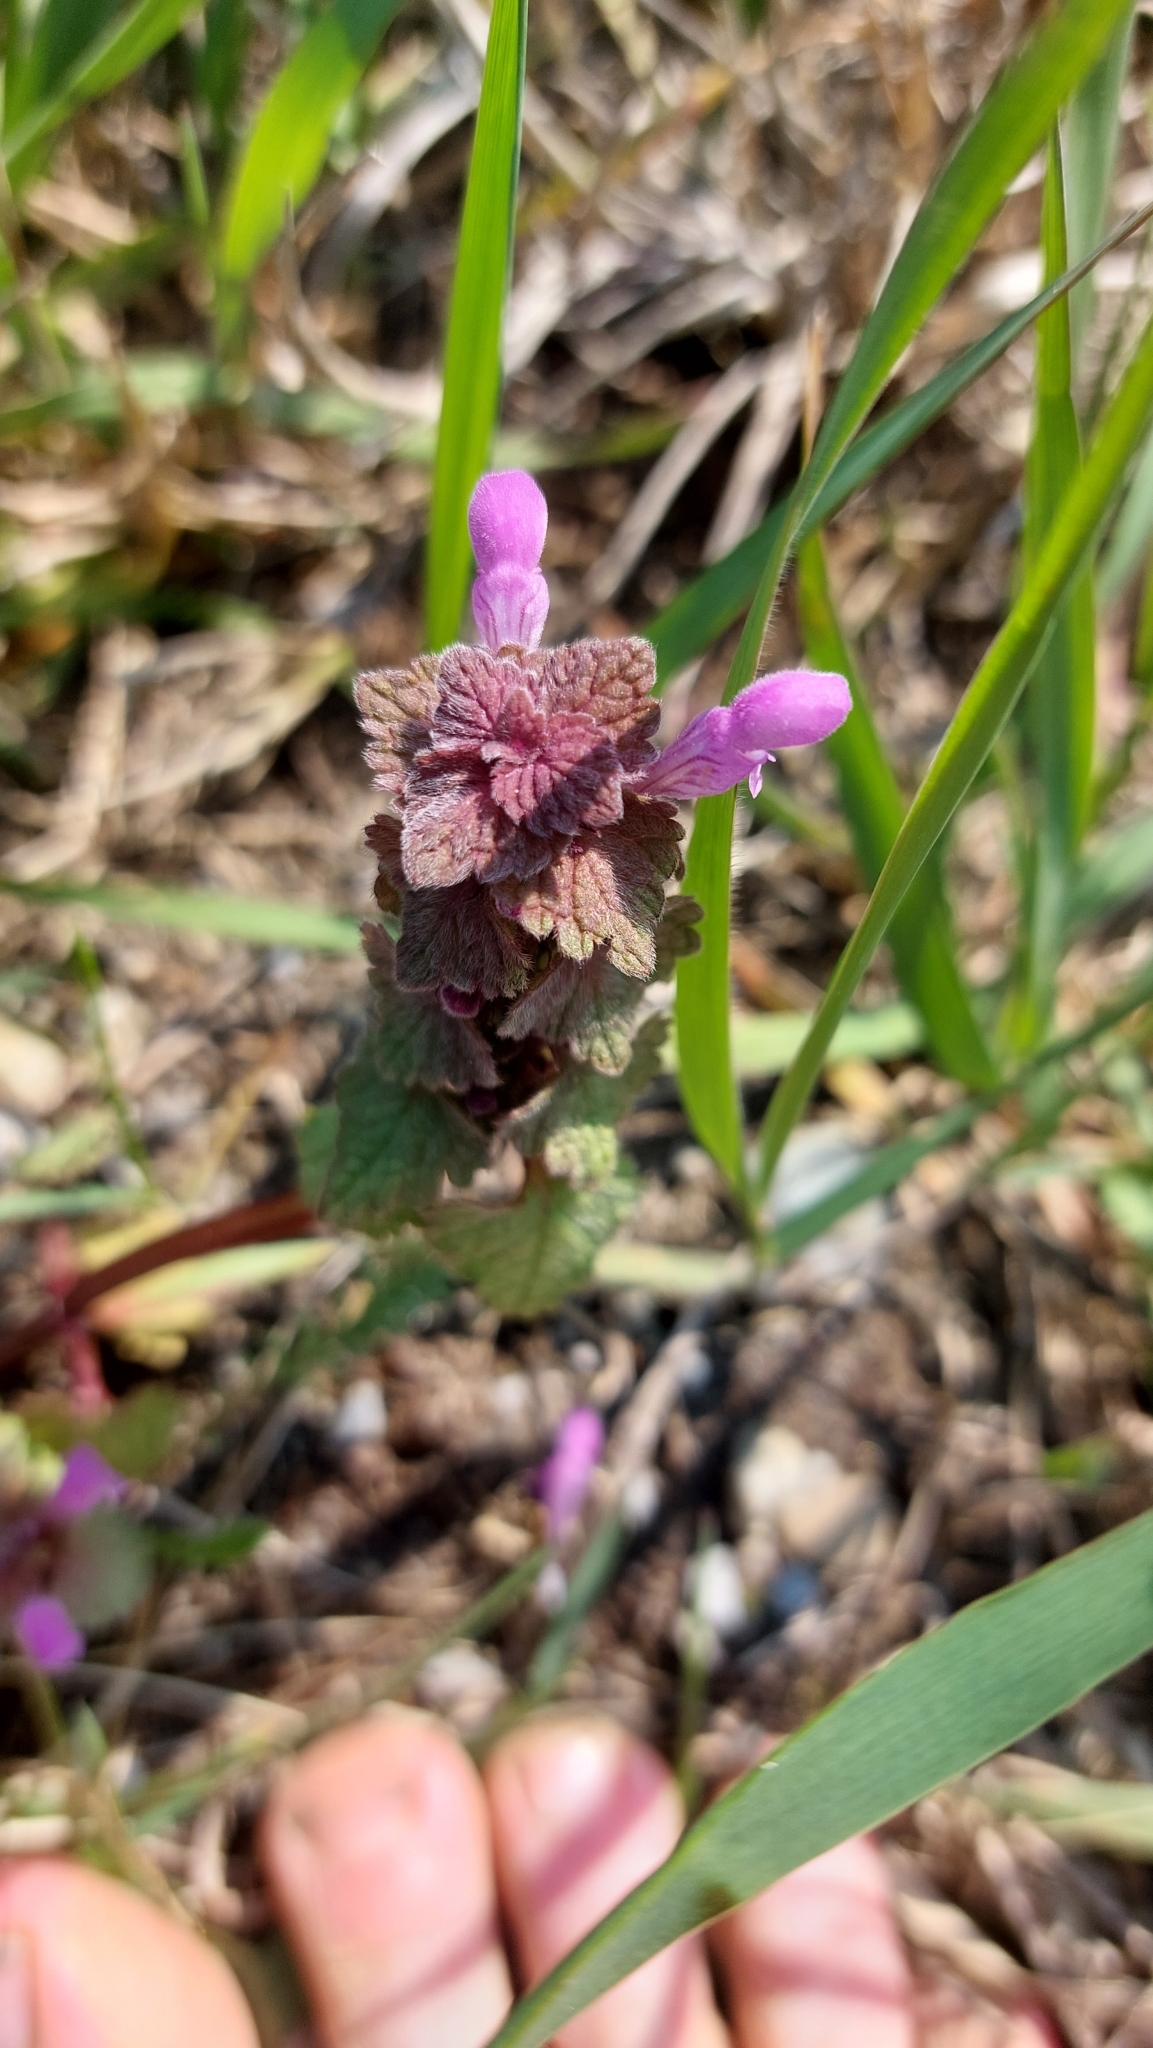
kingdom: Plantae
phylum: Tracheophyta
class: Magnoliopsida
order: Lamiales
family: Lamiaceae
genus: Lamium
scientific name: Lamium purpureum
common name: Red dead-nettle
